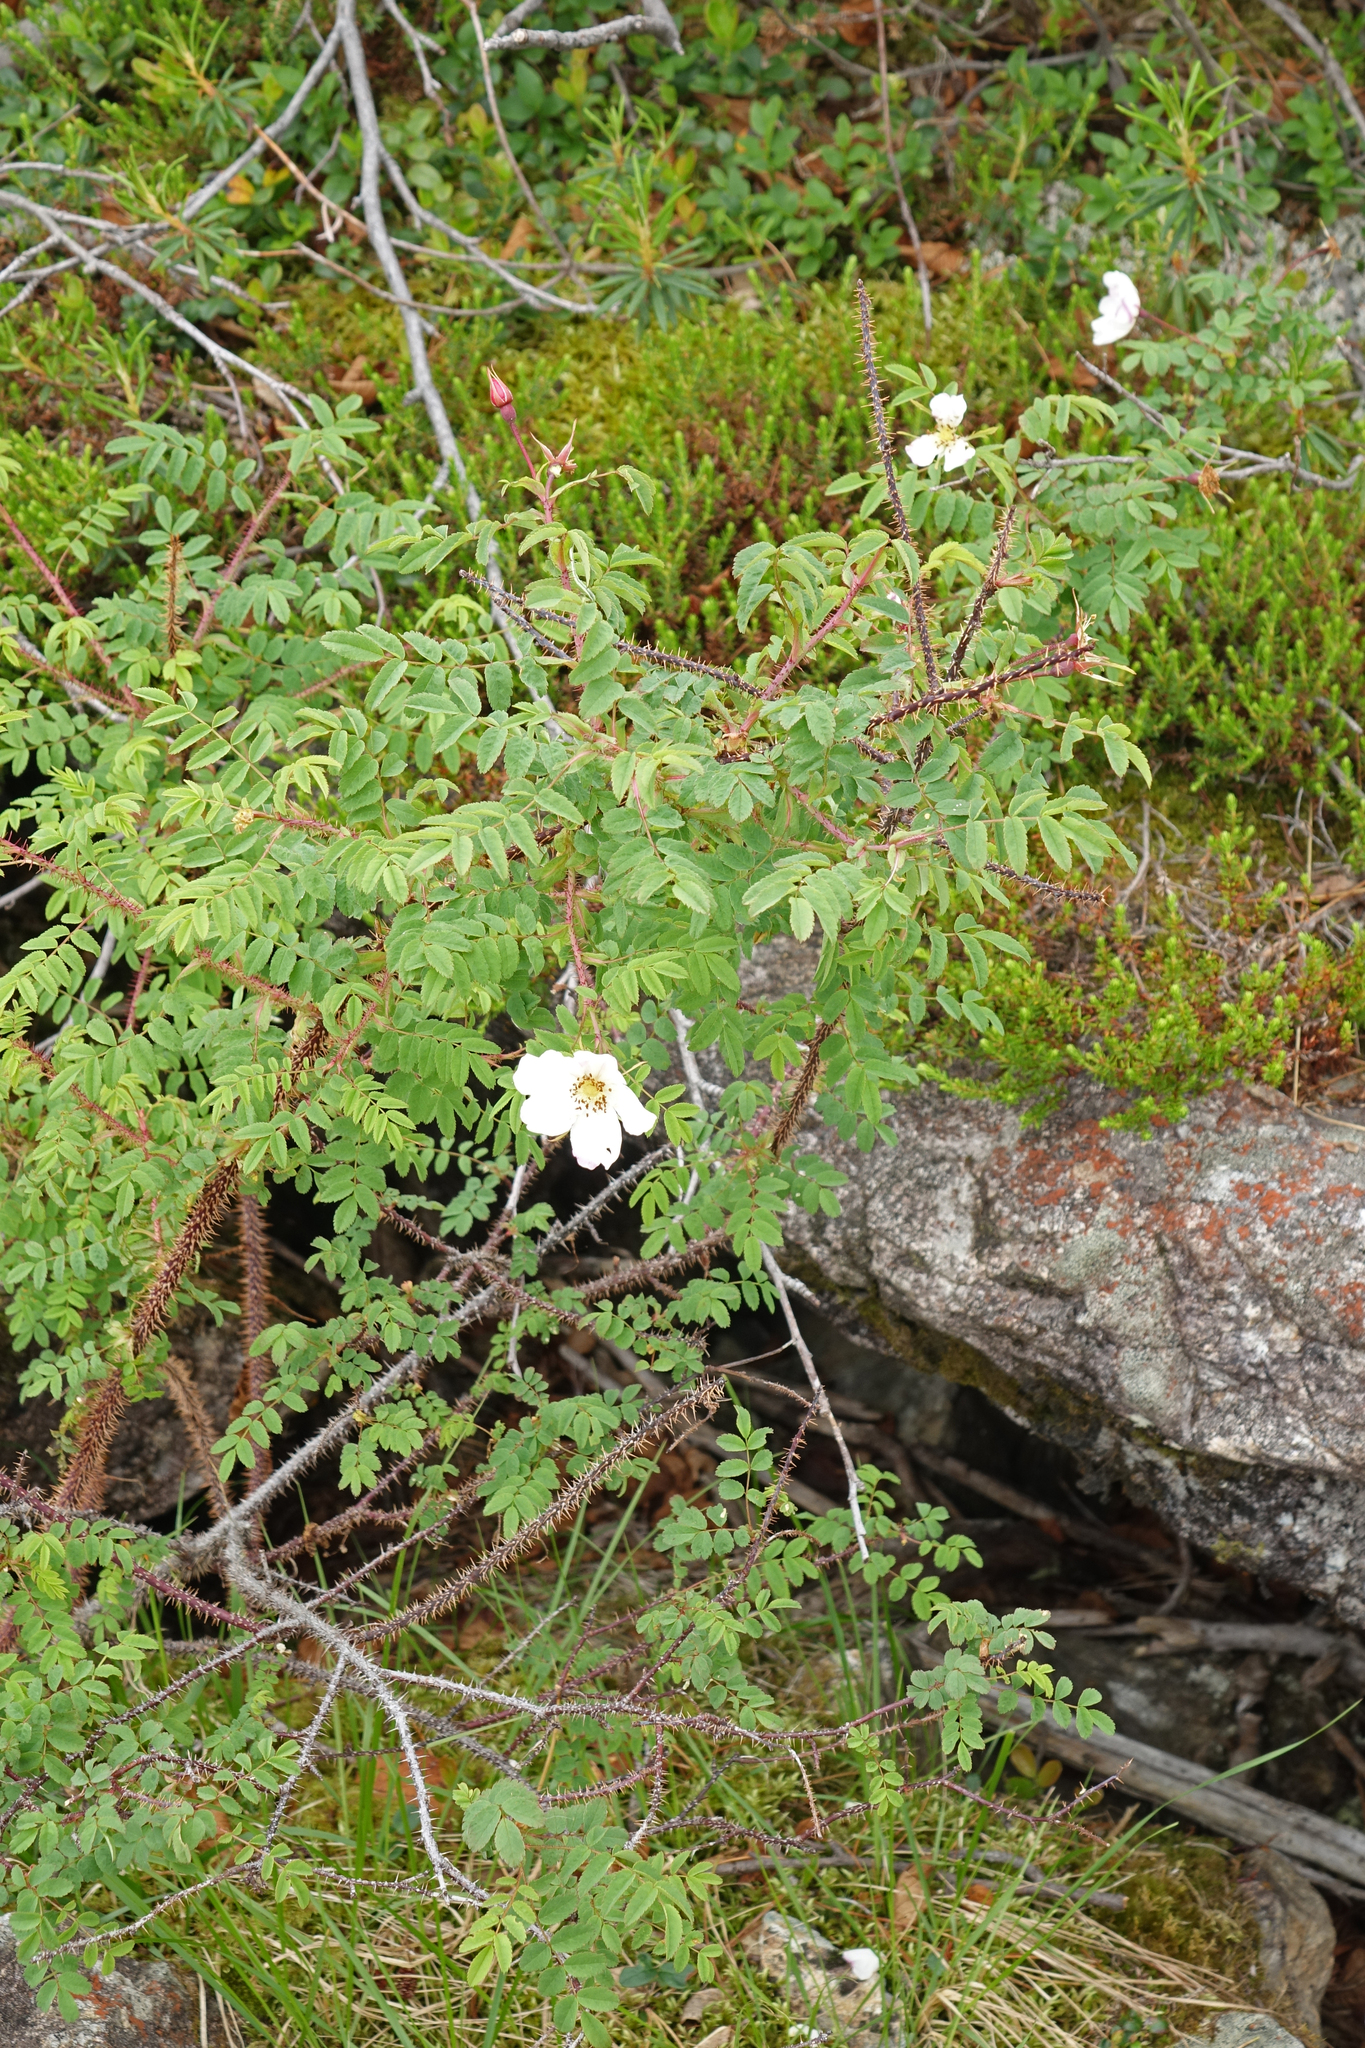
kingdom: Plantae
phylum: Tracheophyta
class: Magnoliopsida
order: Rosales
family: Rosaceae
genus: Rosa
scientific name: Rosa spinosissima
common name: Burnet rose
